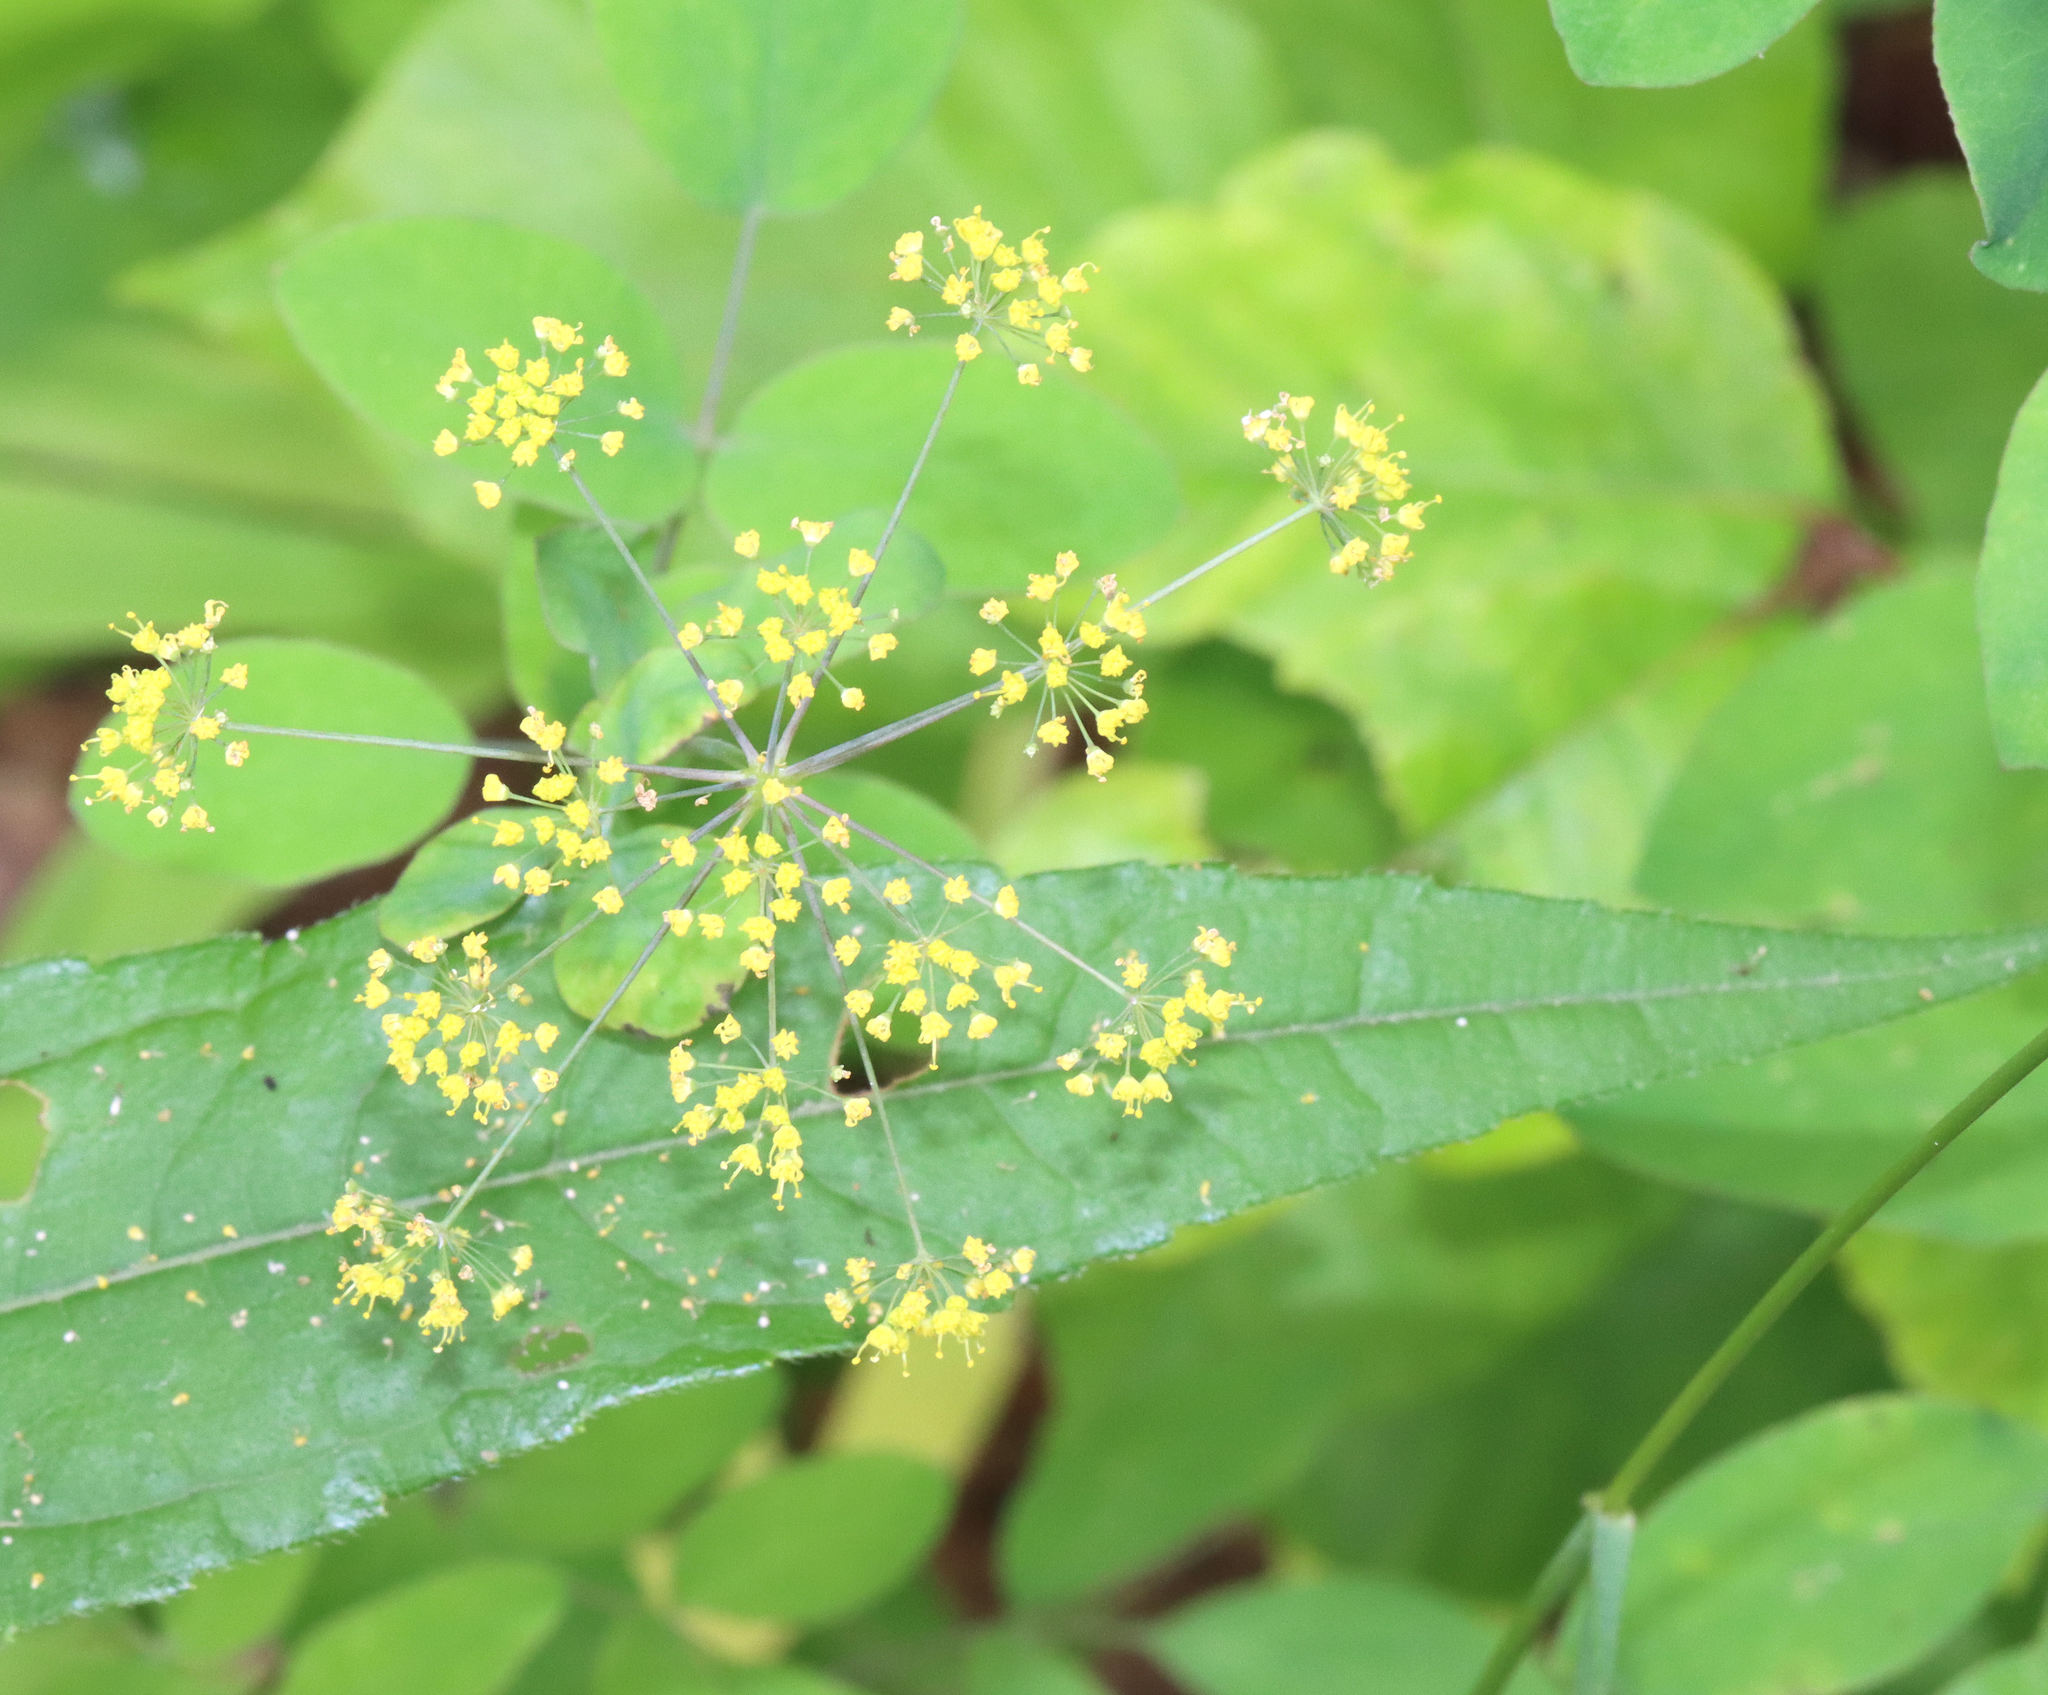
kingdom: Plantae
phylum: Tracheophyta
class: Magnoliopsida
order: Apiales
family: Apiaceae
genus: Taenidia
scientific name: Taenidia integerrima
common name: Golden alexander
